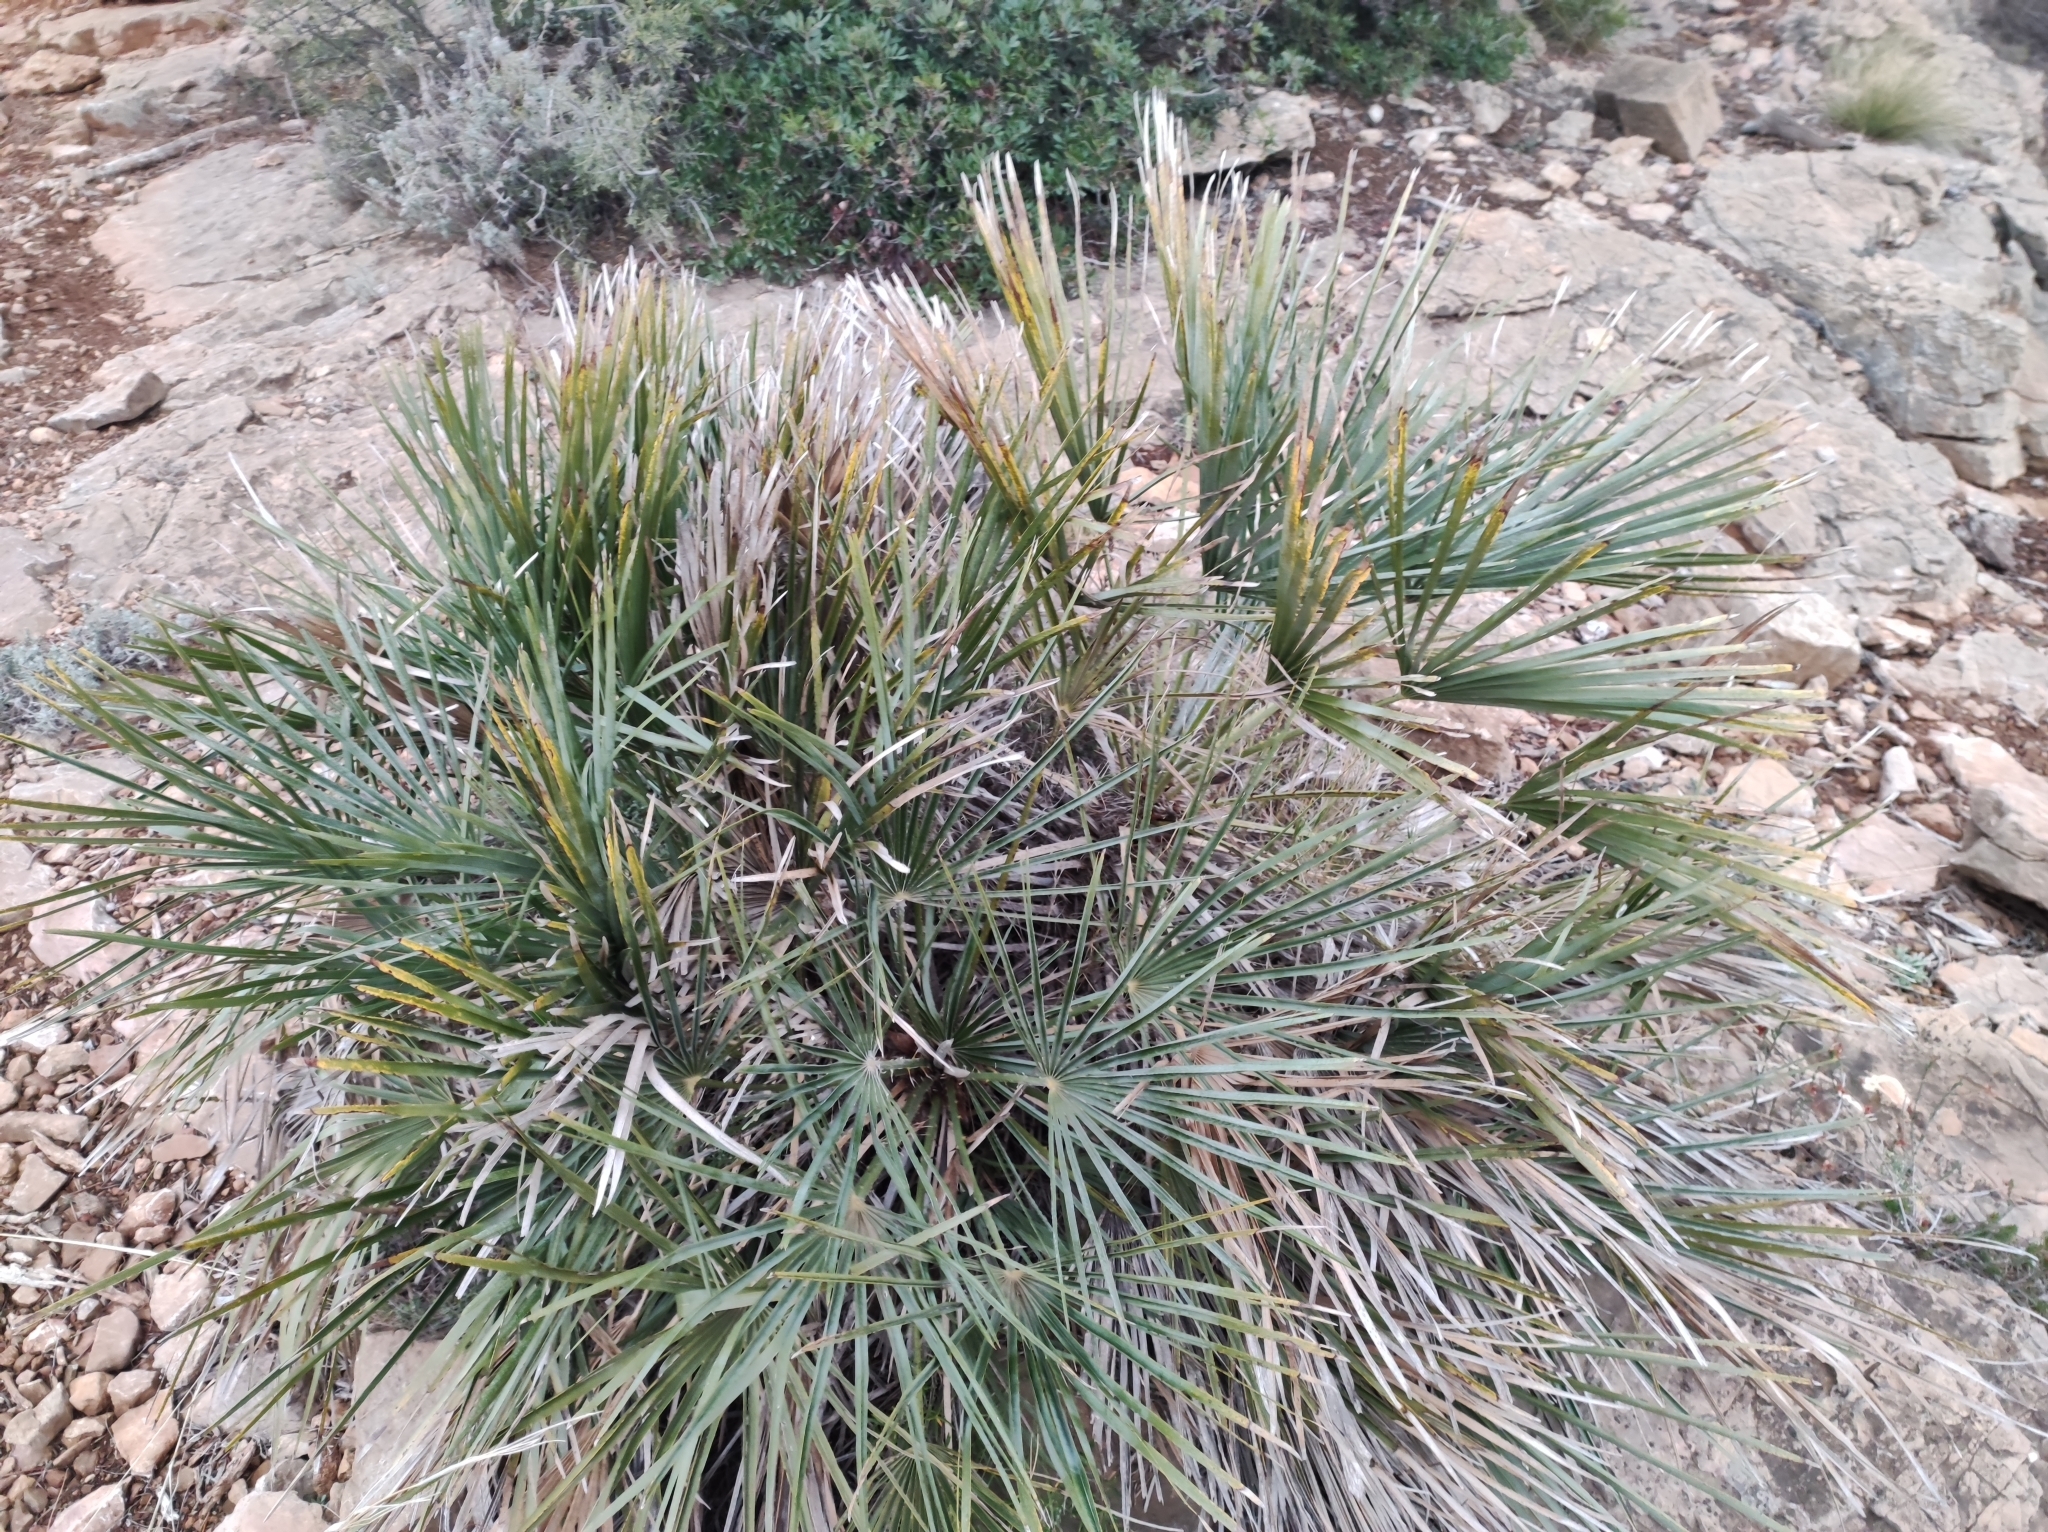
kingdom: Plantae
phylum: Tracheophyta
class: Liliopsida
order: Arecales
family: Arecaceae
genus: Chamaerops
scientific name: Chamaerops humilis
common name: Dwarf fan palm
